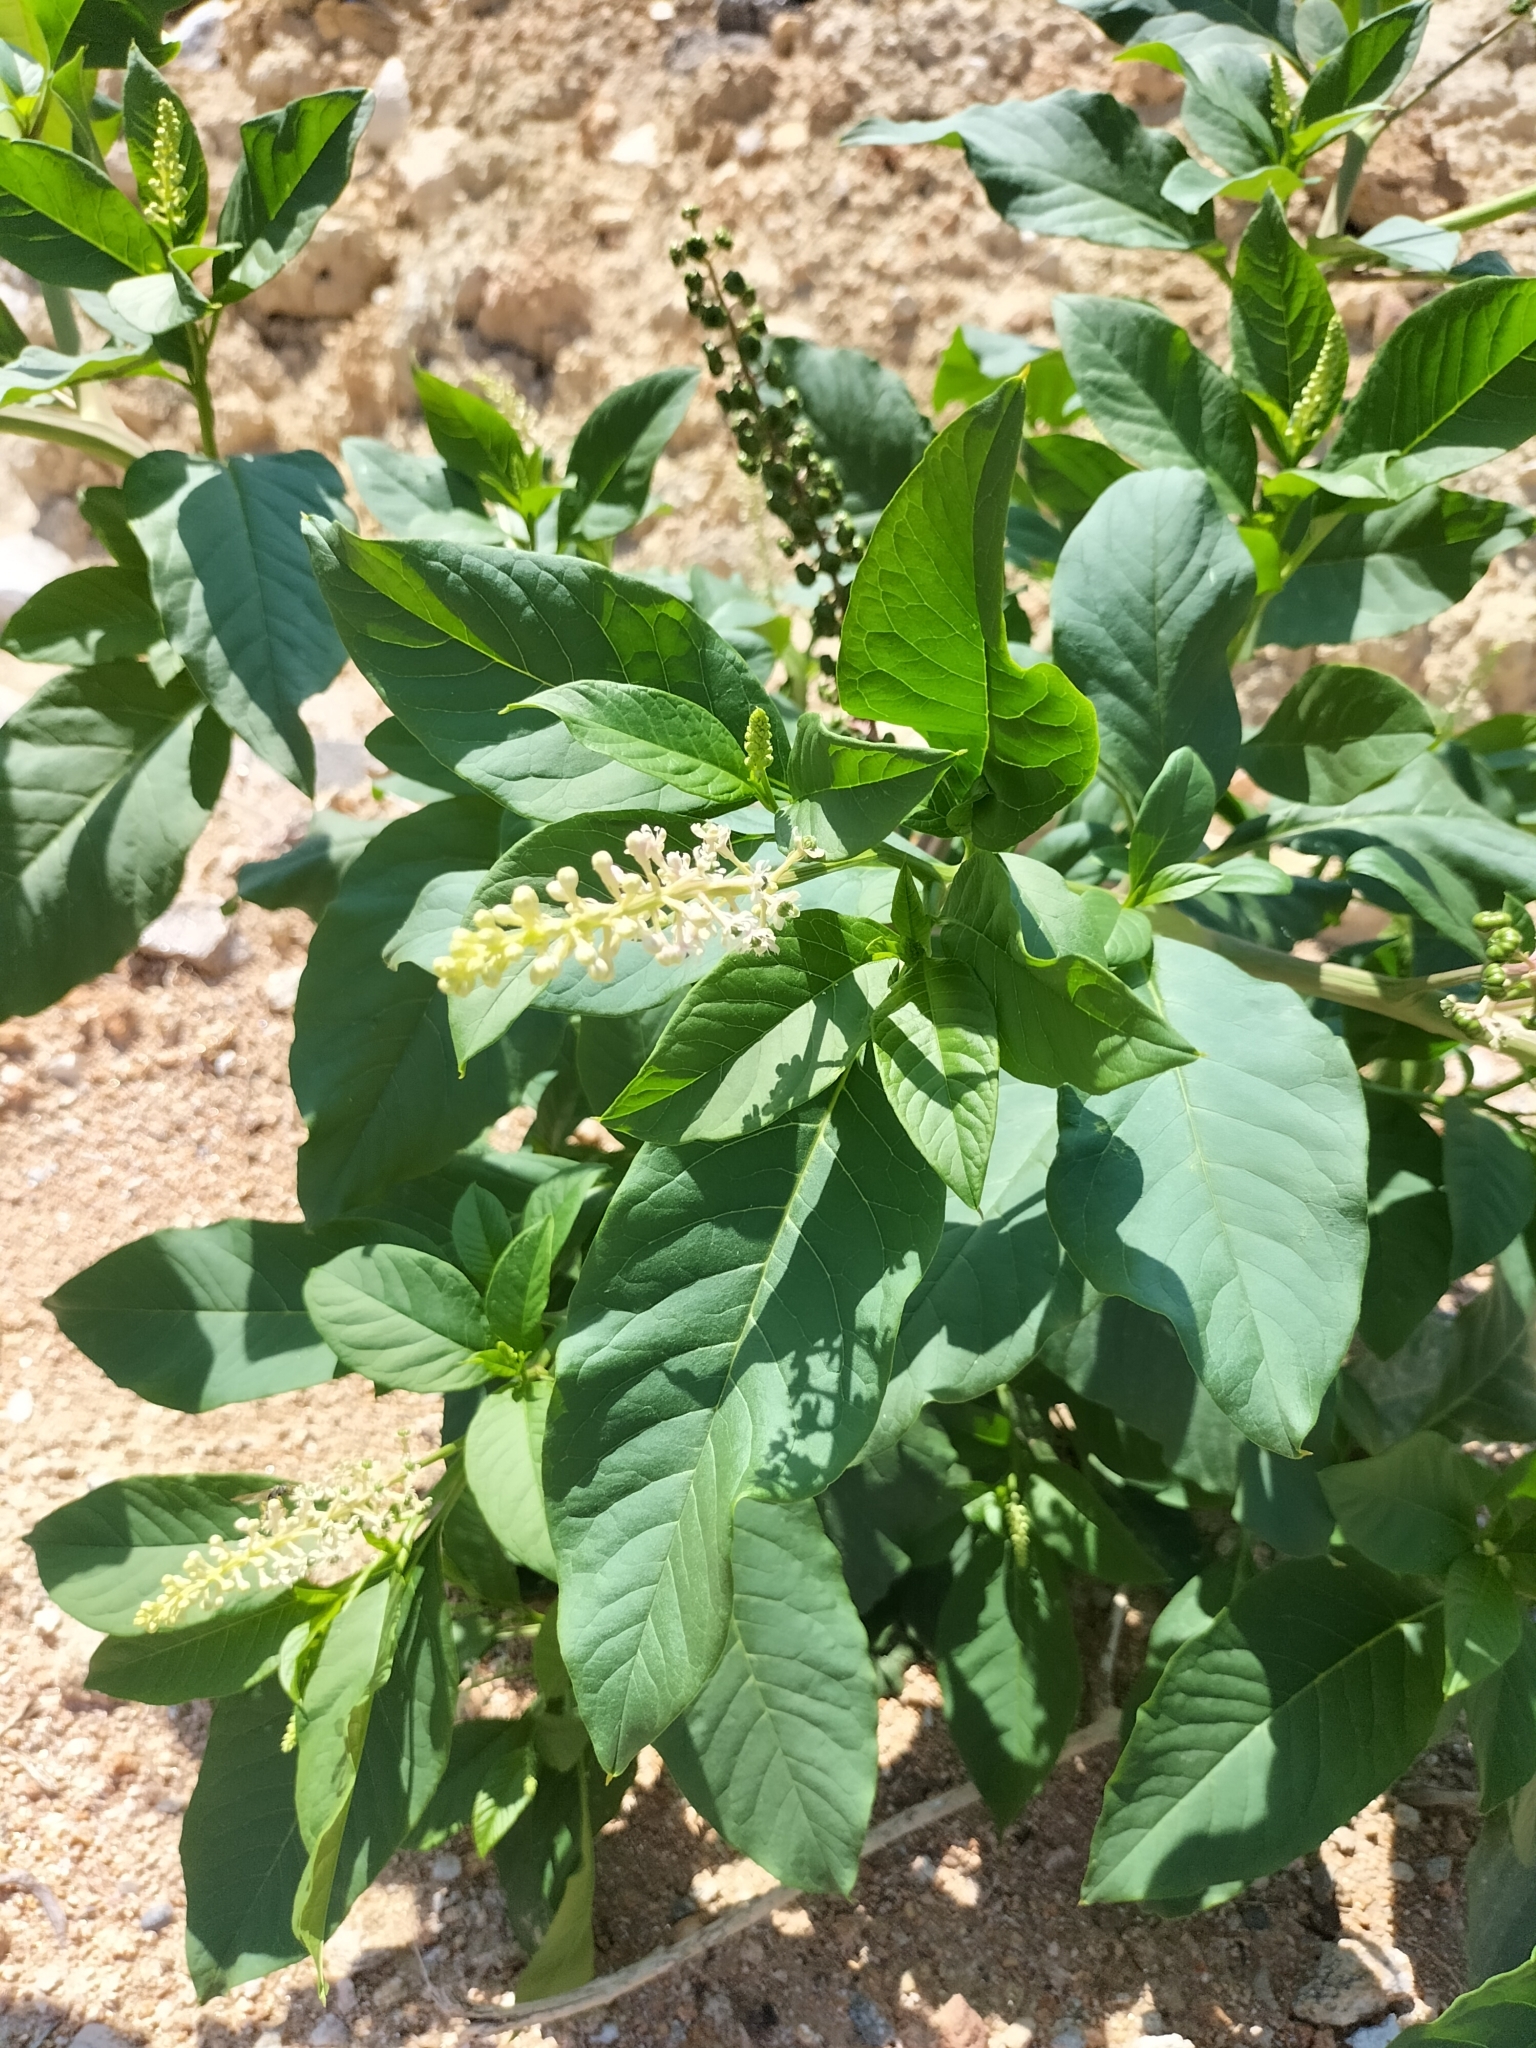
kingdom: Plantae
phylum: Tracheophyta
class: Magnoliopsida
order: Caryophyllales
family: Phytolaccaceae
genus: Phytolacca
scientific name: Phytolacca americana
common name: American pokeweed
